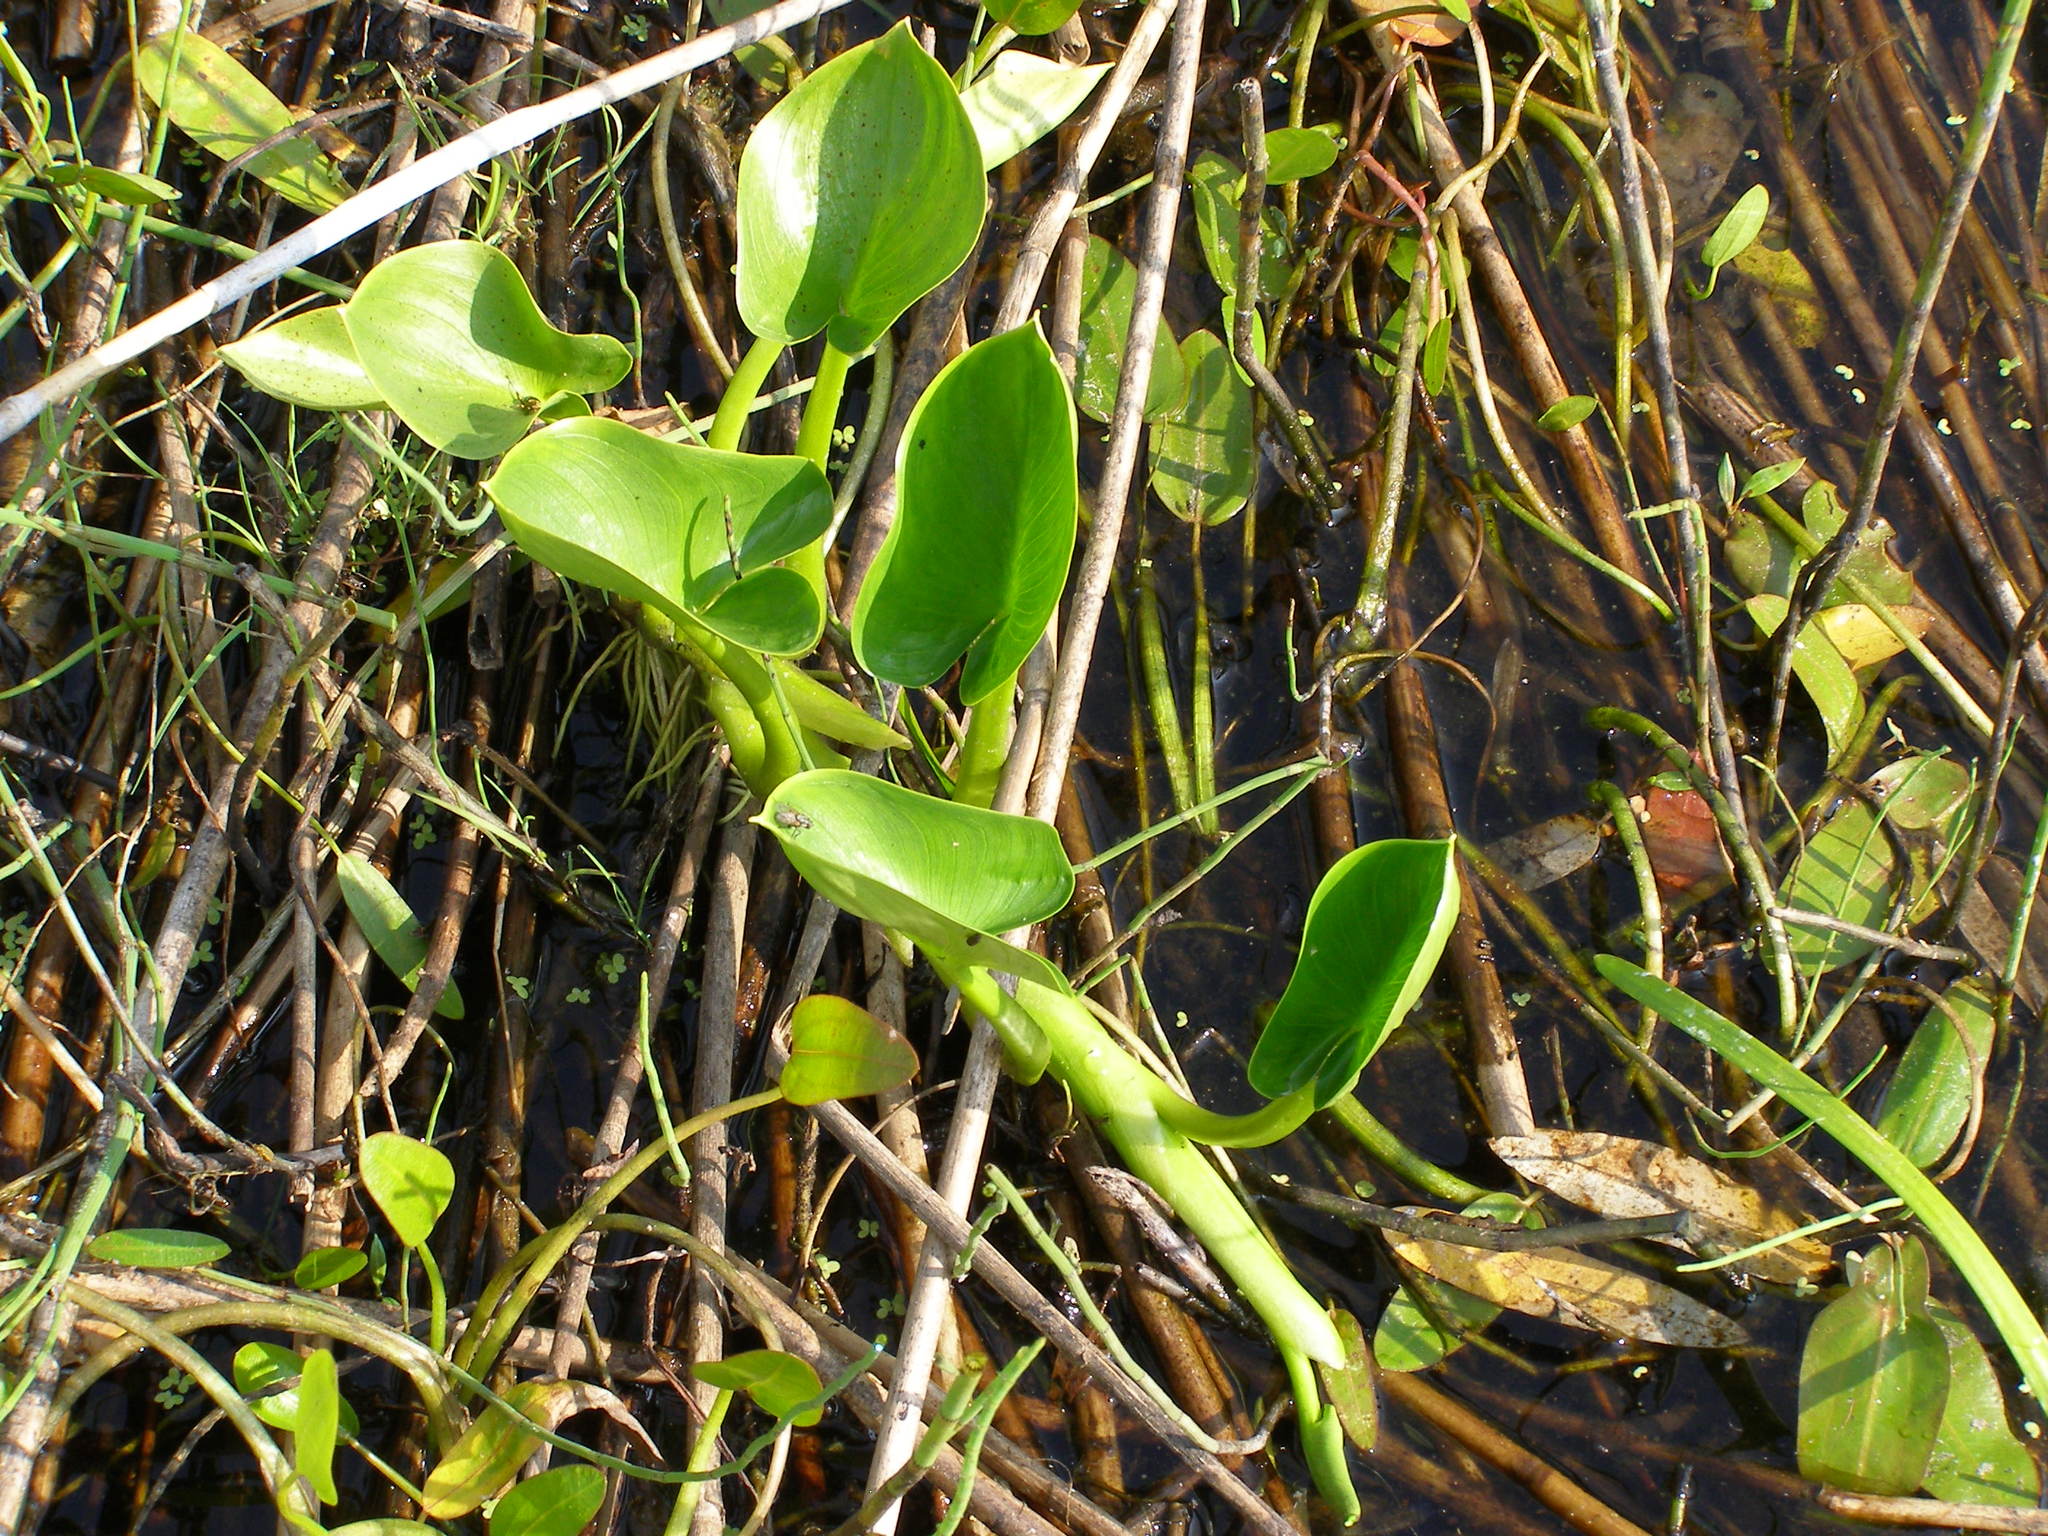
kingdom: Plantae
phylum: Tracheophyta
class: Liliopsida
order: Alismatales
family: Araceae
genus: Calla
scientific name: Calla palustris
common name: Bog arum
